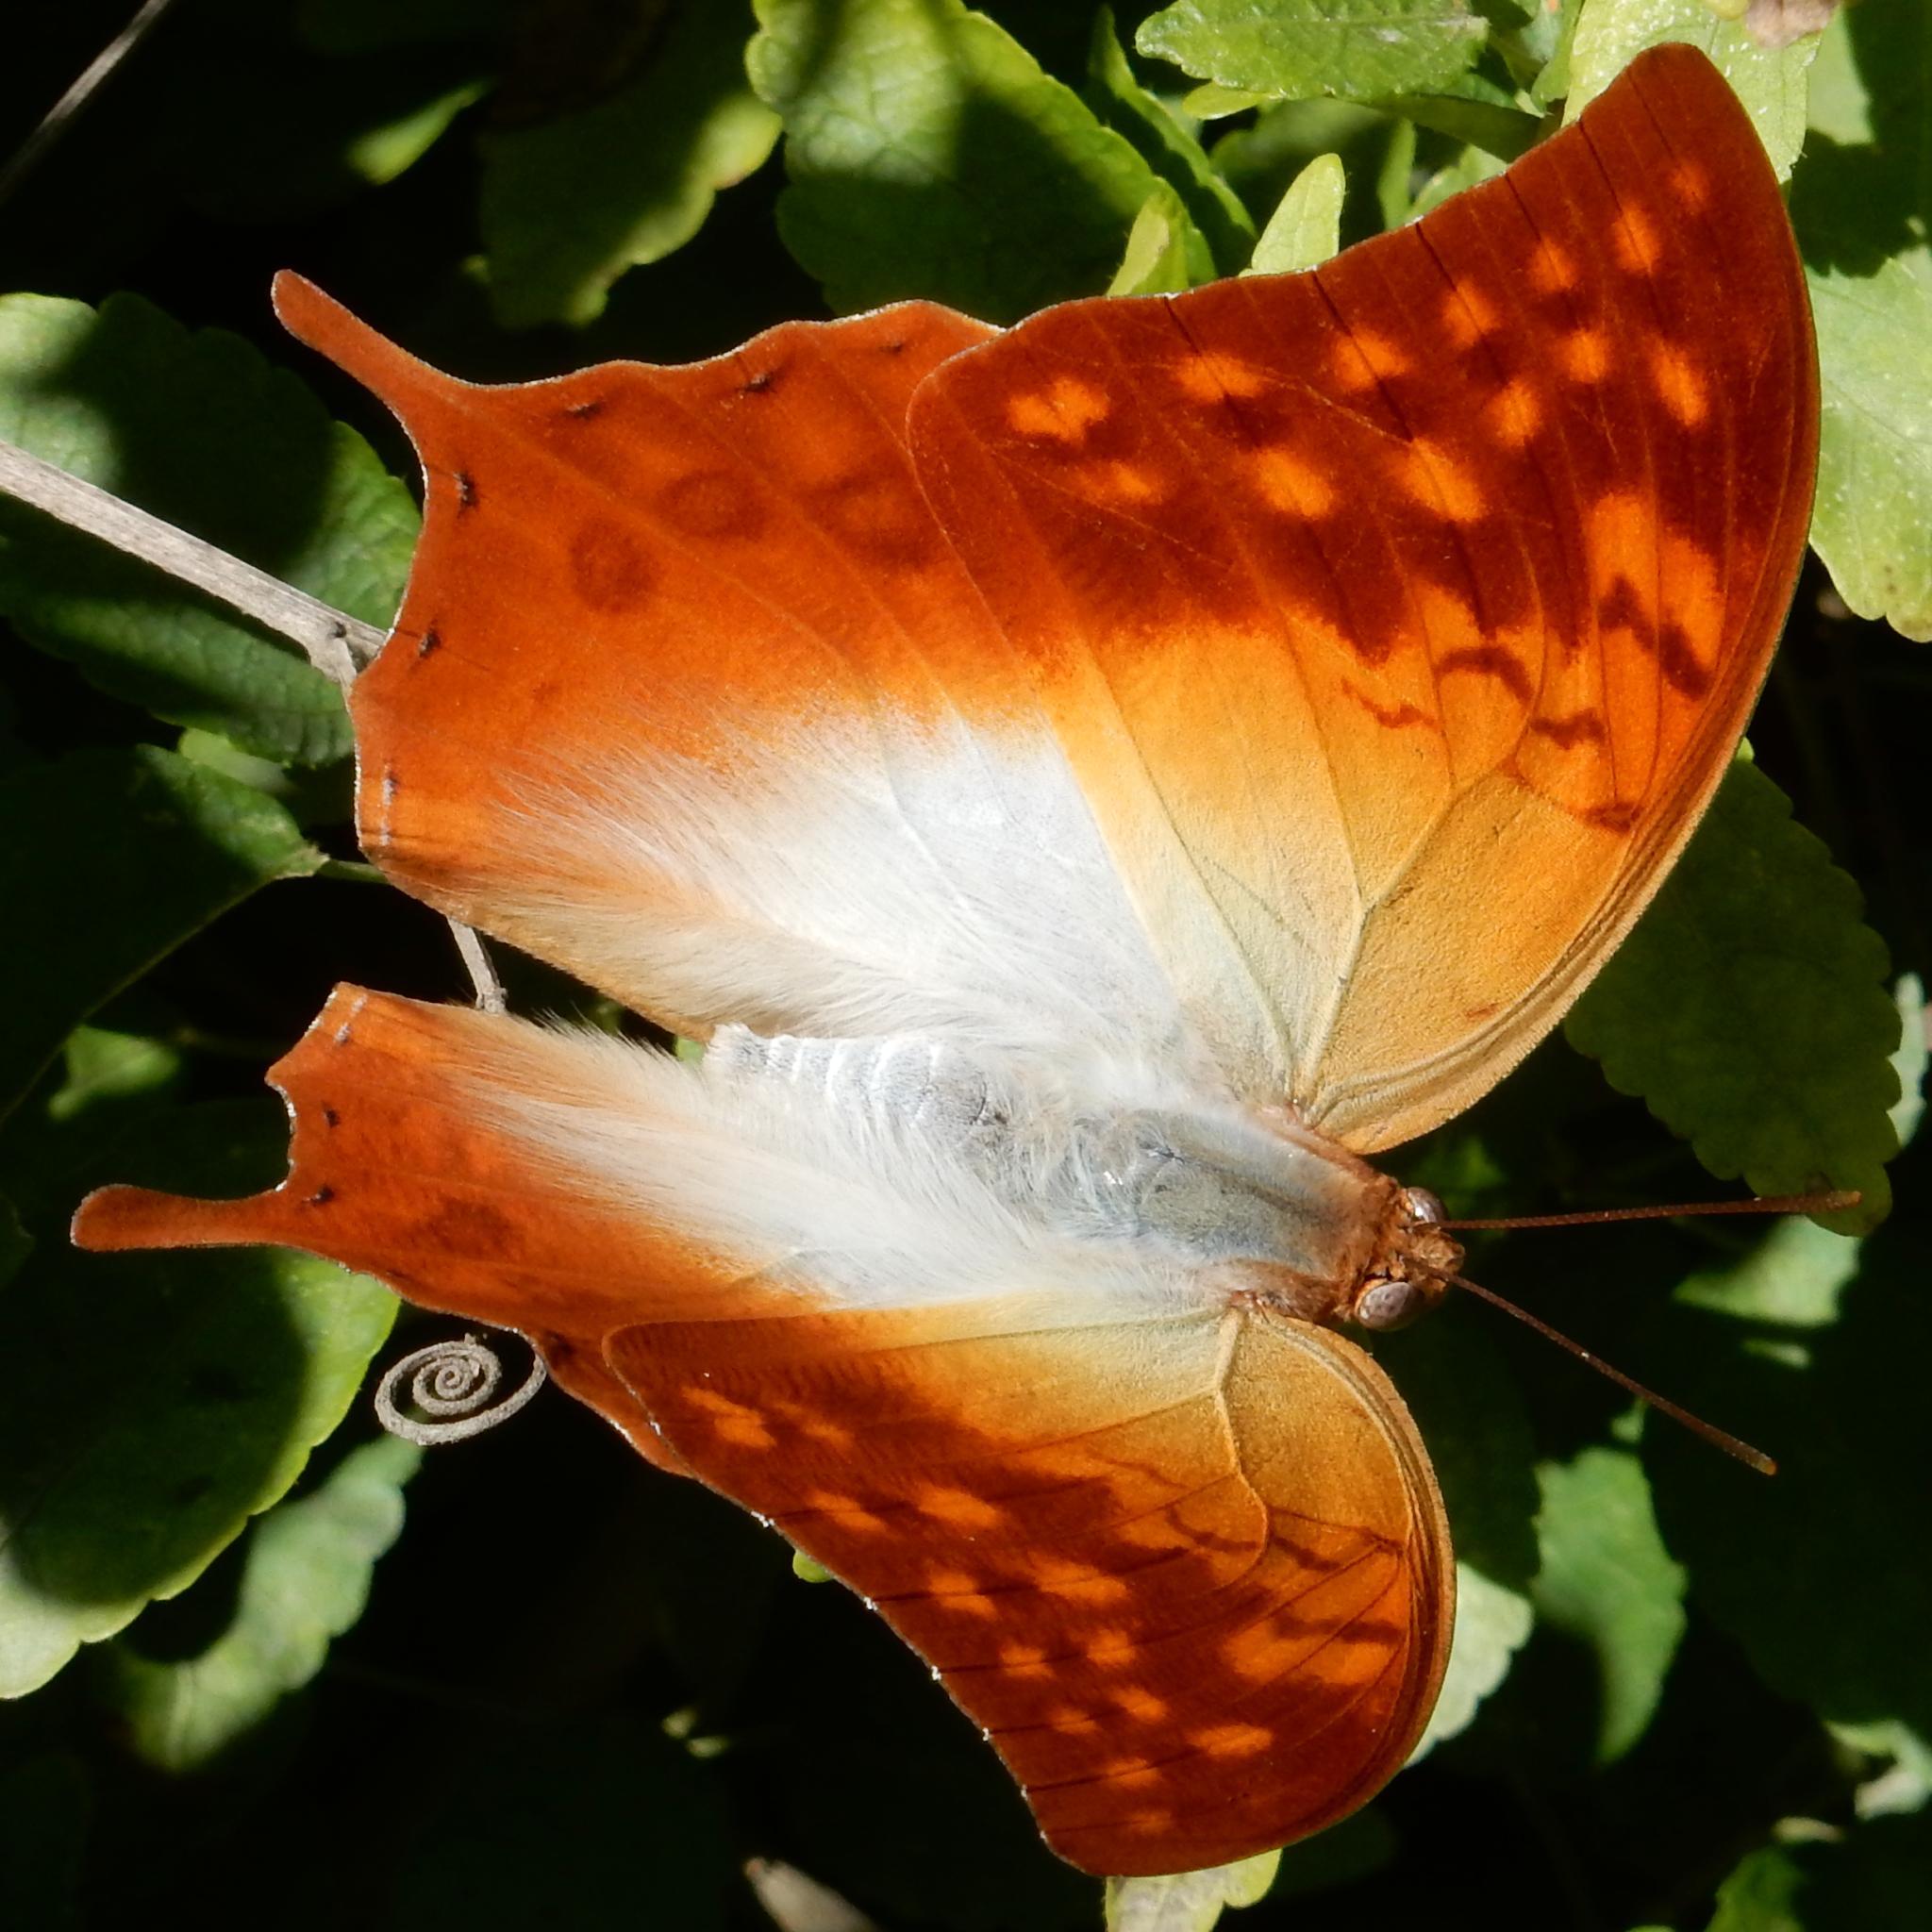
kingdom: Animalia
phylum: Arthropoda
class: Insecta
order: Lepidoptera
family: Nymphalidae
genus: Charaxes
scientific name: Charaxes varanes
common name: Common pearl charaxes
